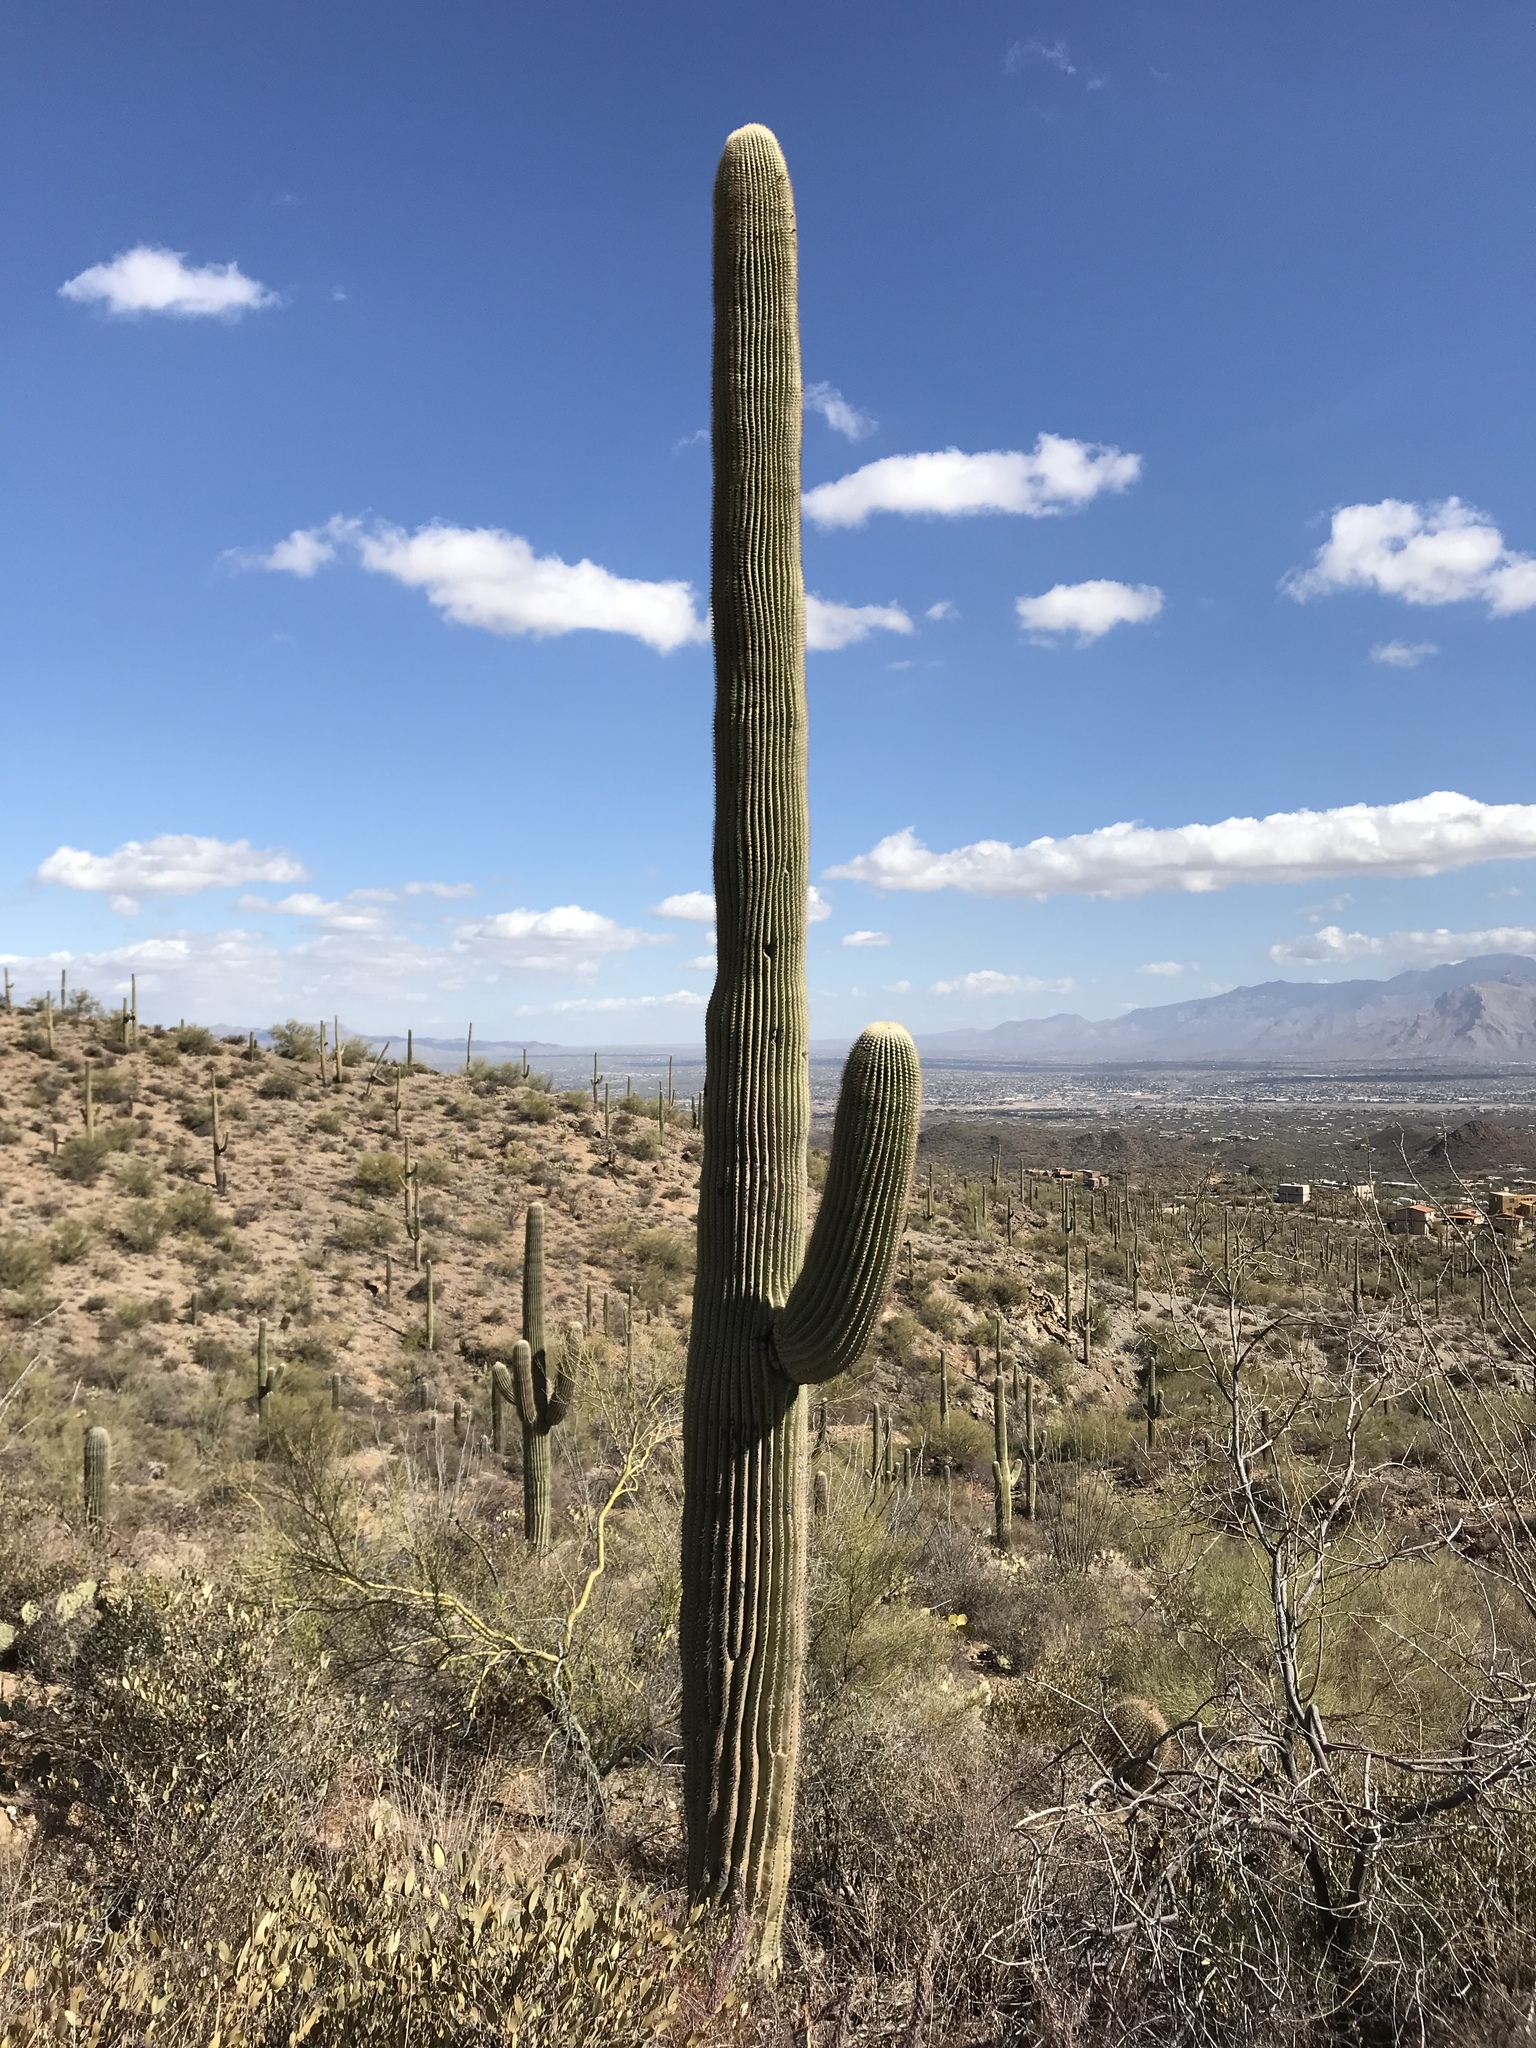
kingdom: Plantae
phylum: Tracheophyta
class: Magnoliopsida
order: Caryophyllales
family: Cactaceae
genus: Carnegiea
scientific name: Carnegiea gigantea
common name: Saguaro
